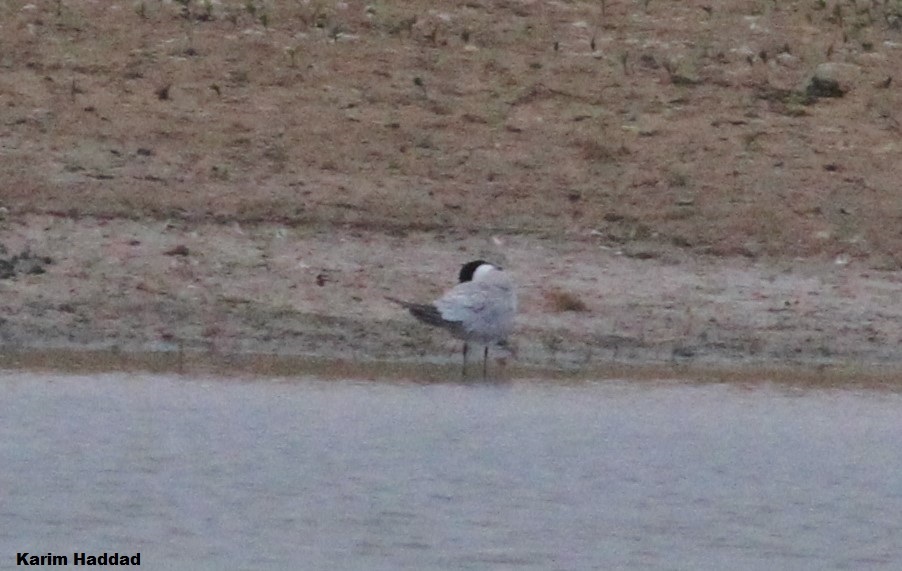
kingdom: Animalia
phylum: Chordata
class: Aves
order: Charadriiformes
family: Laridae
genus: Gelochelidon
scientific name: Gelochelidon nilotica
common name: Gull-billed tern
